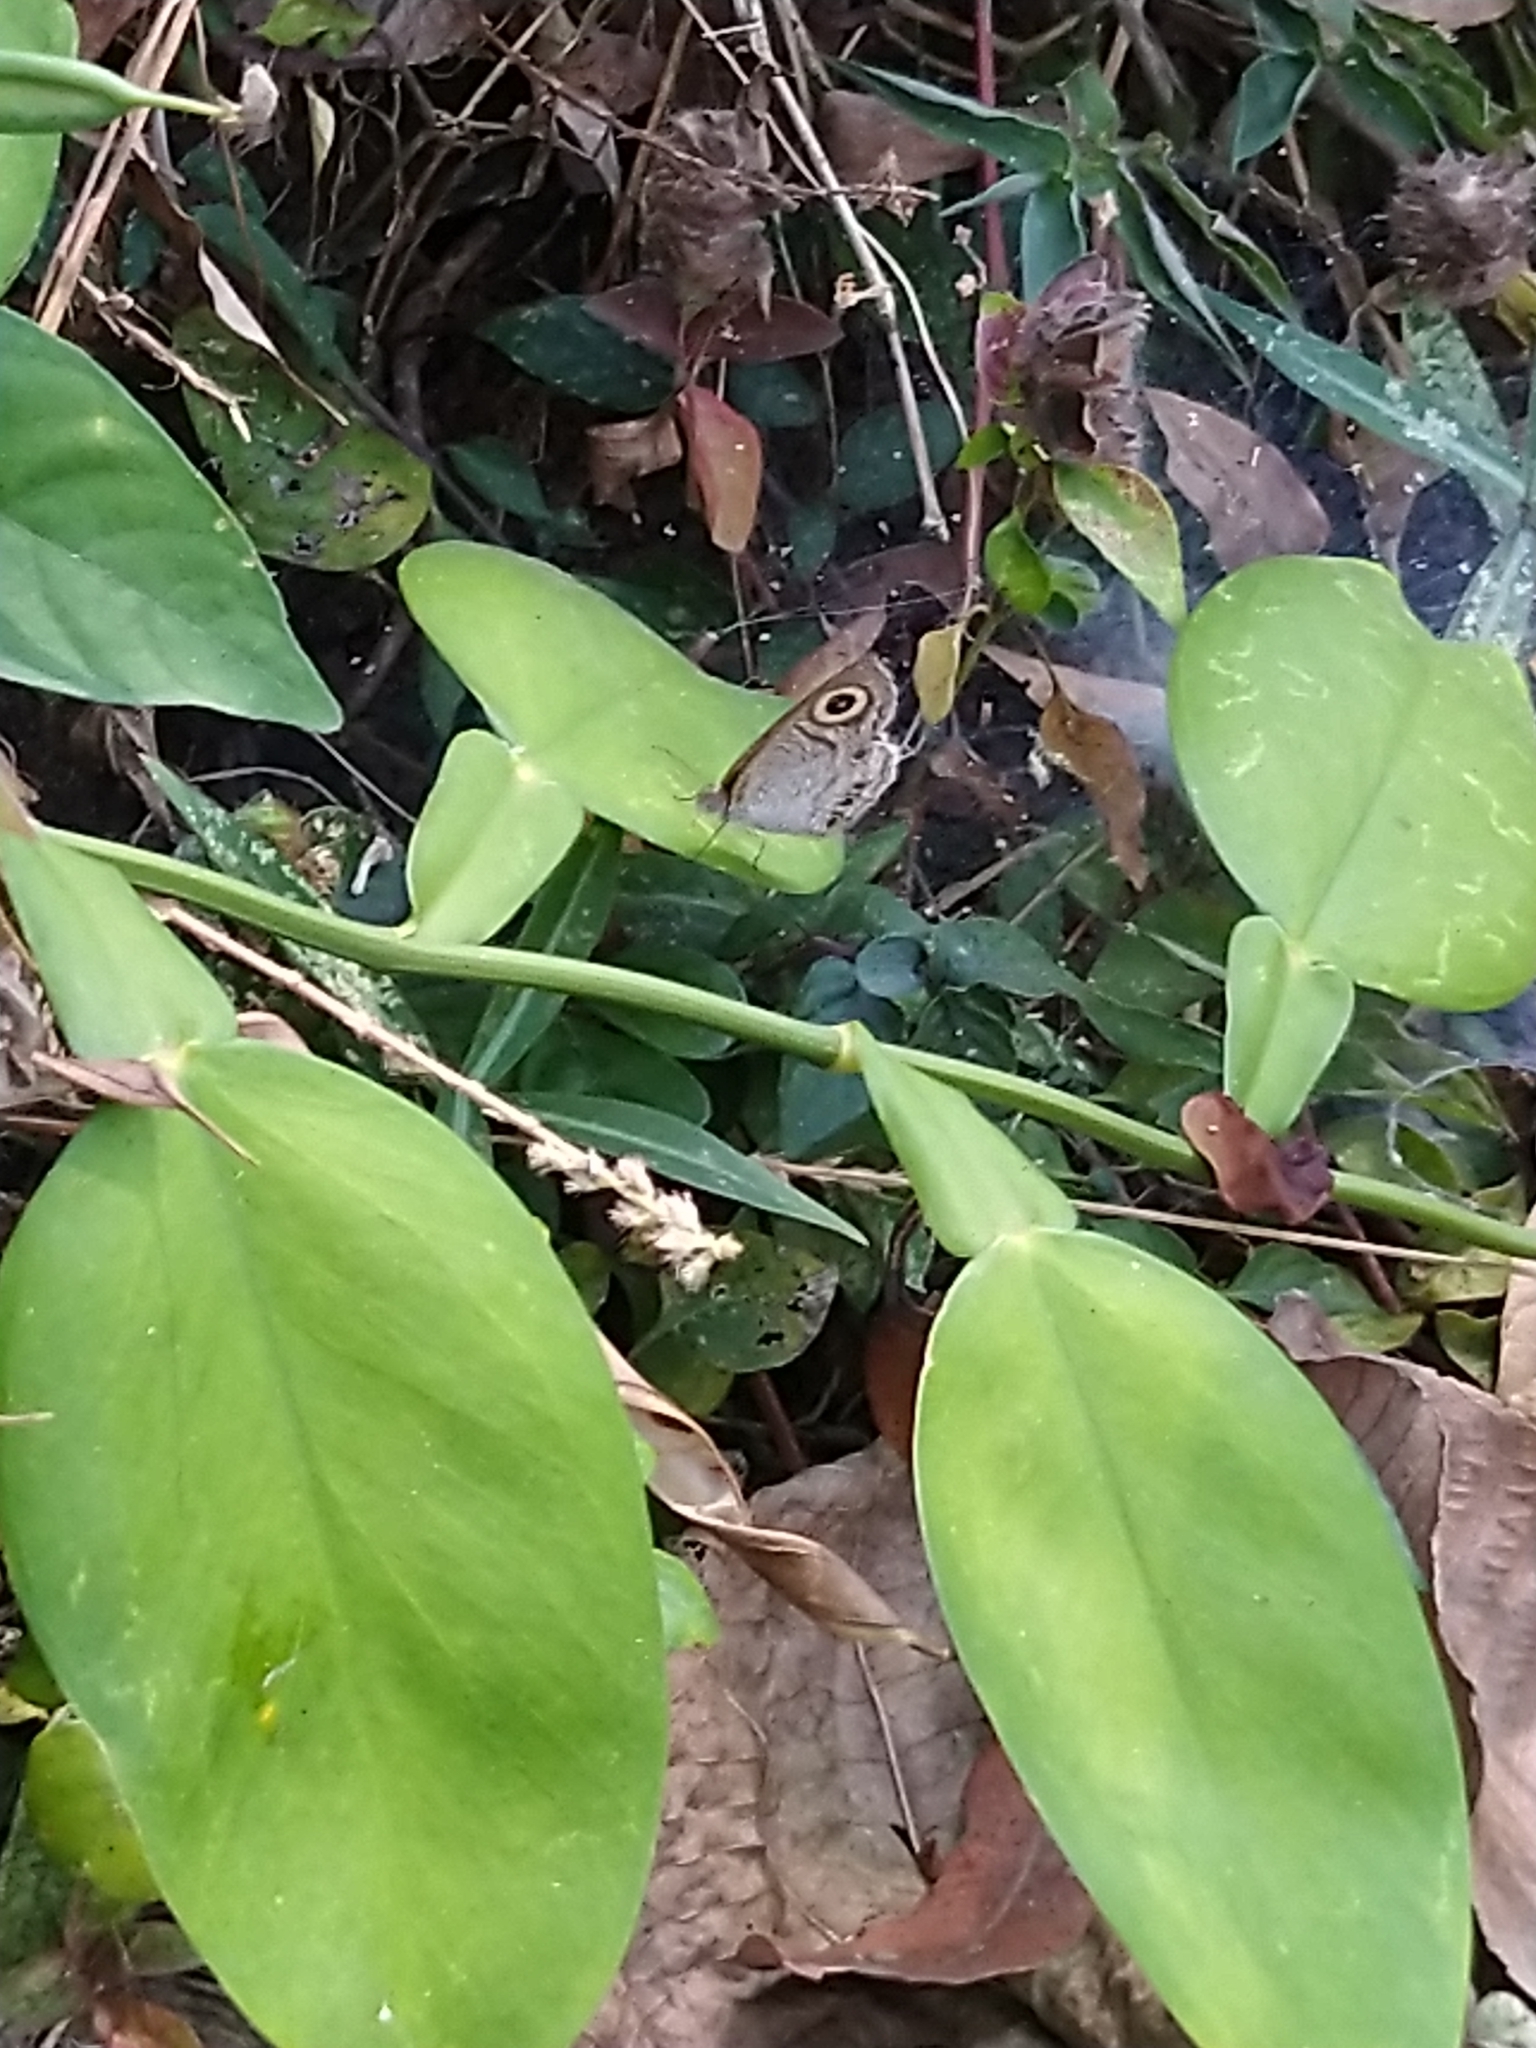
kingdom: Animalia
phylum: Arthropoda
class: Insecta
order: Lepidoptera
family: Nymphalidae
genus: Ypthima
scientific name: Ypthima huebneri
